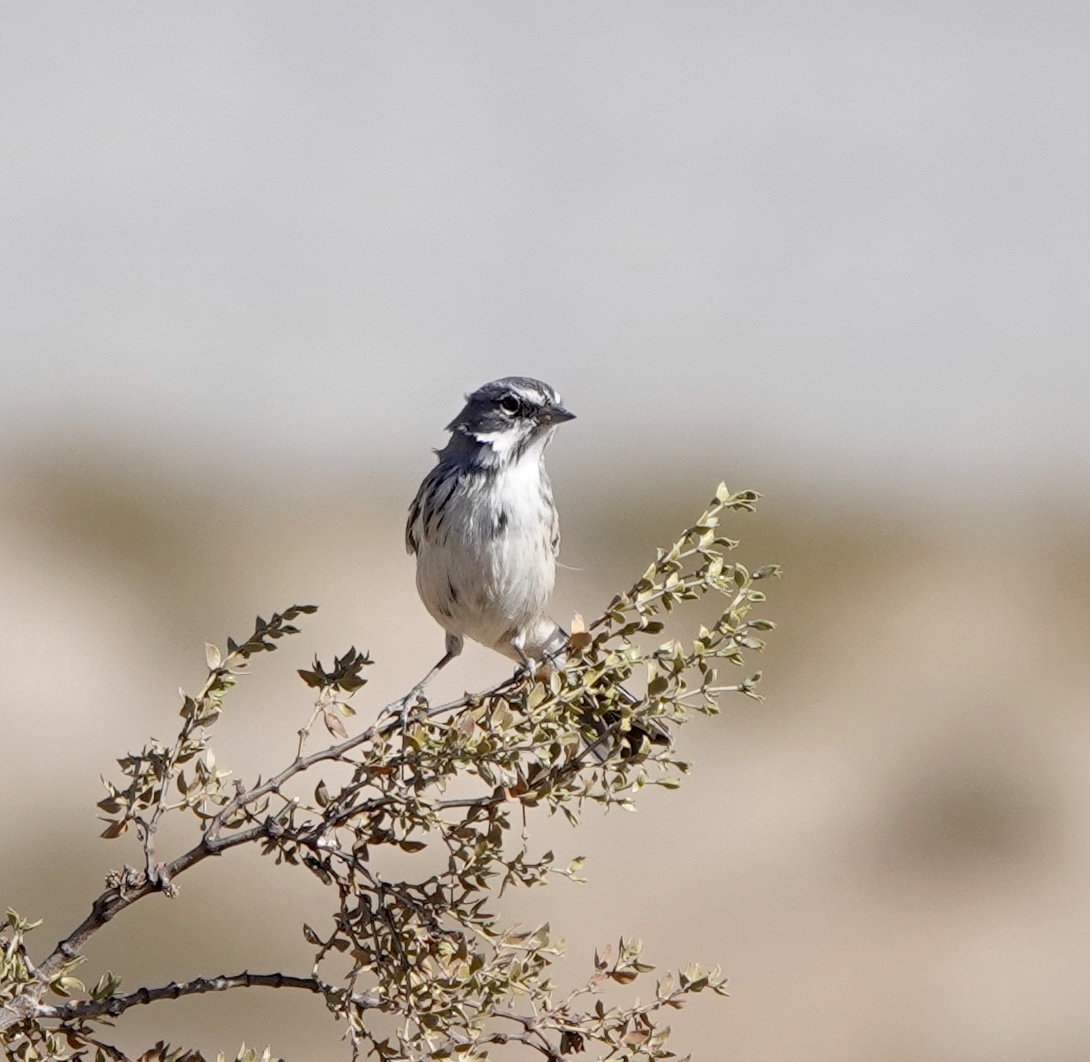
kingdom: Animalia
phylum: Chordata
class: Aves
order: Passeriformes
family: Passerellidae
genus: Artemisiospiza
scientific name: Artemisiospiza
